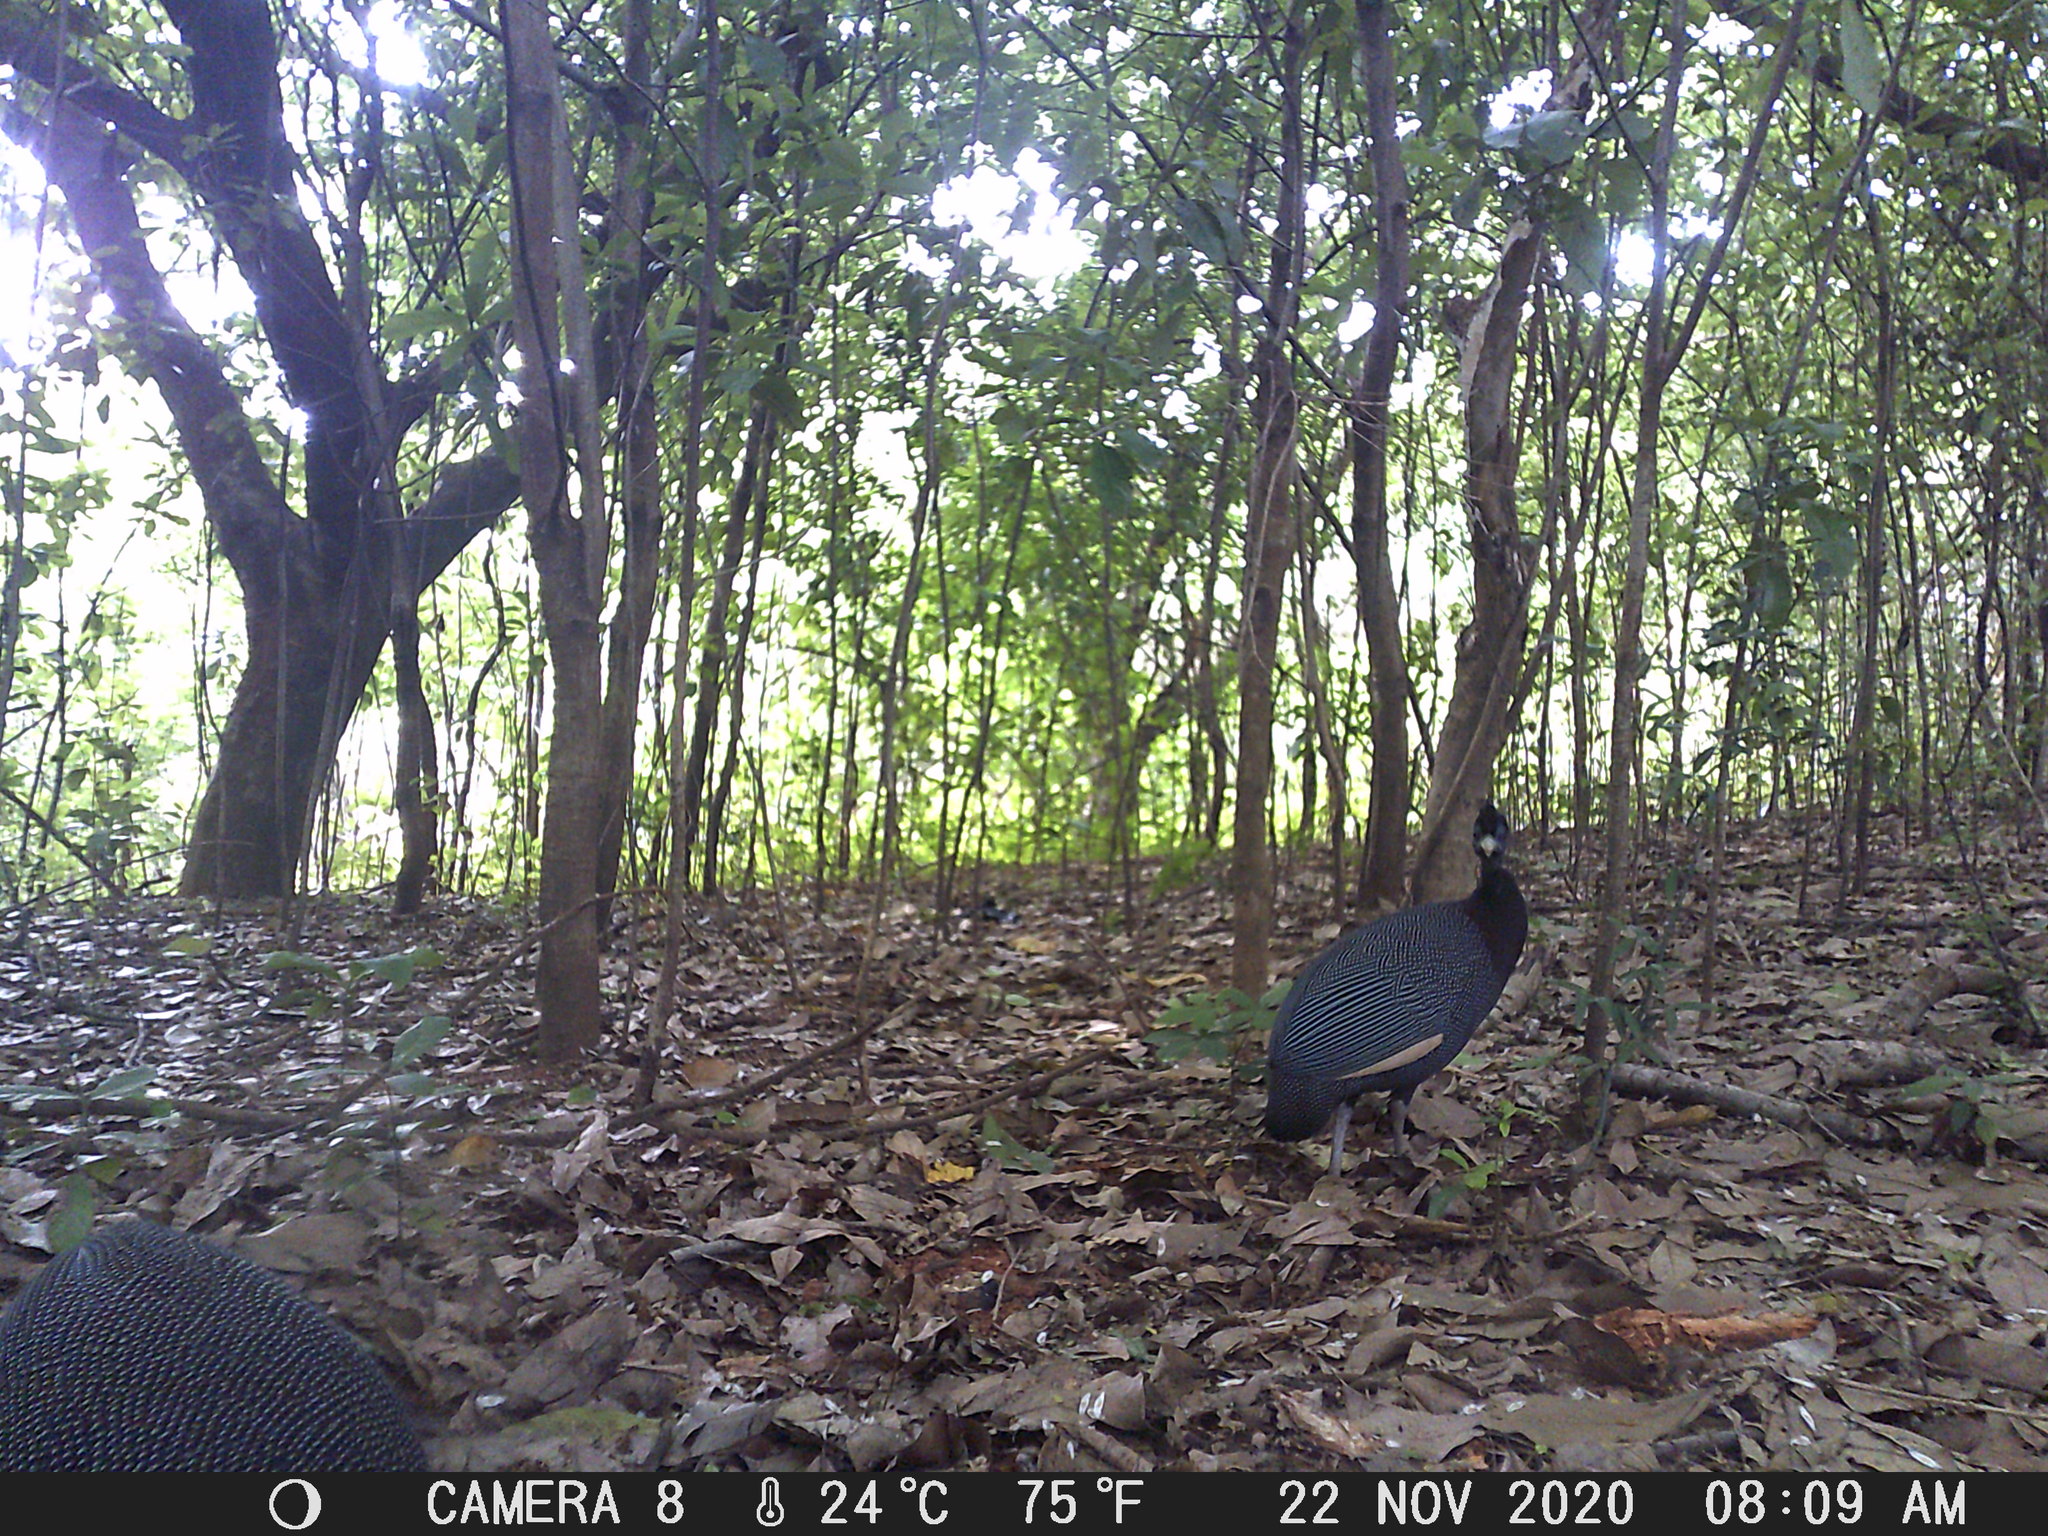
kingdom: Animalia
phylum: Chordata
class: Aves
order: Galliformes
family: Numididae
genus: Guttera
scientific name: Guttera pucherani
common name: Crested guineafowl
